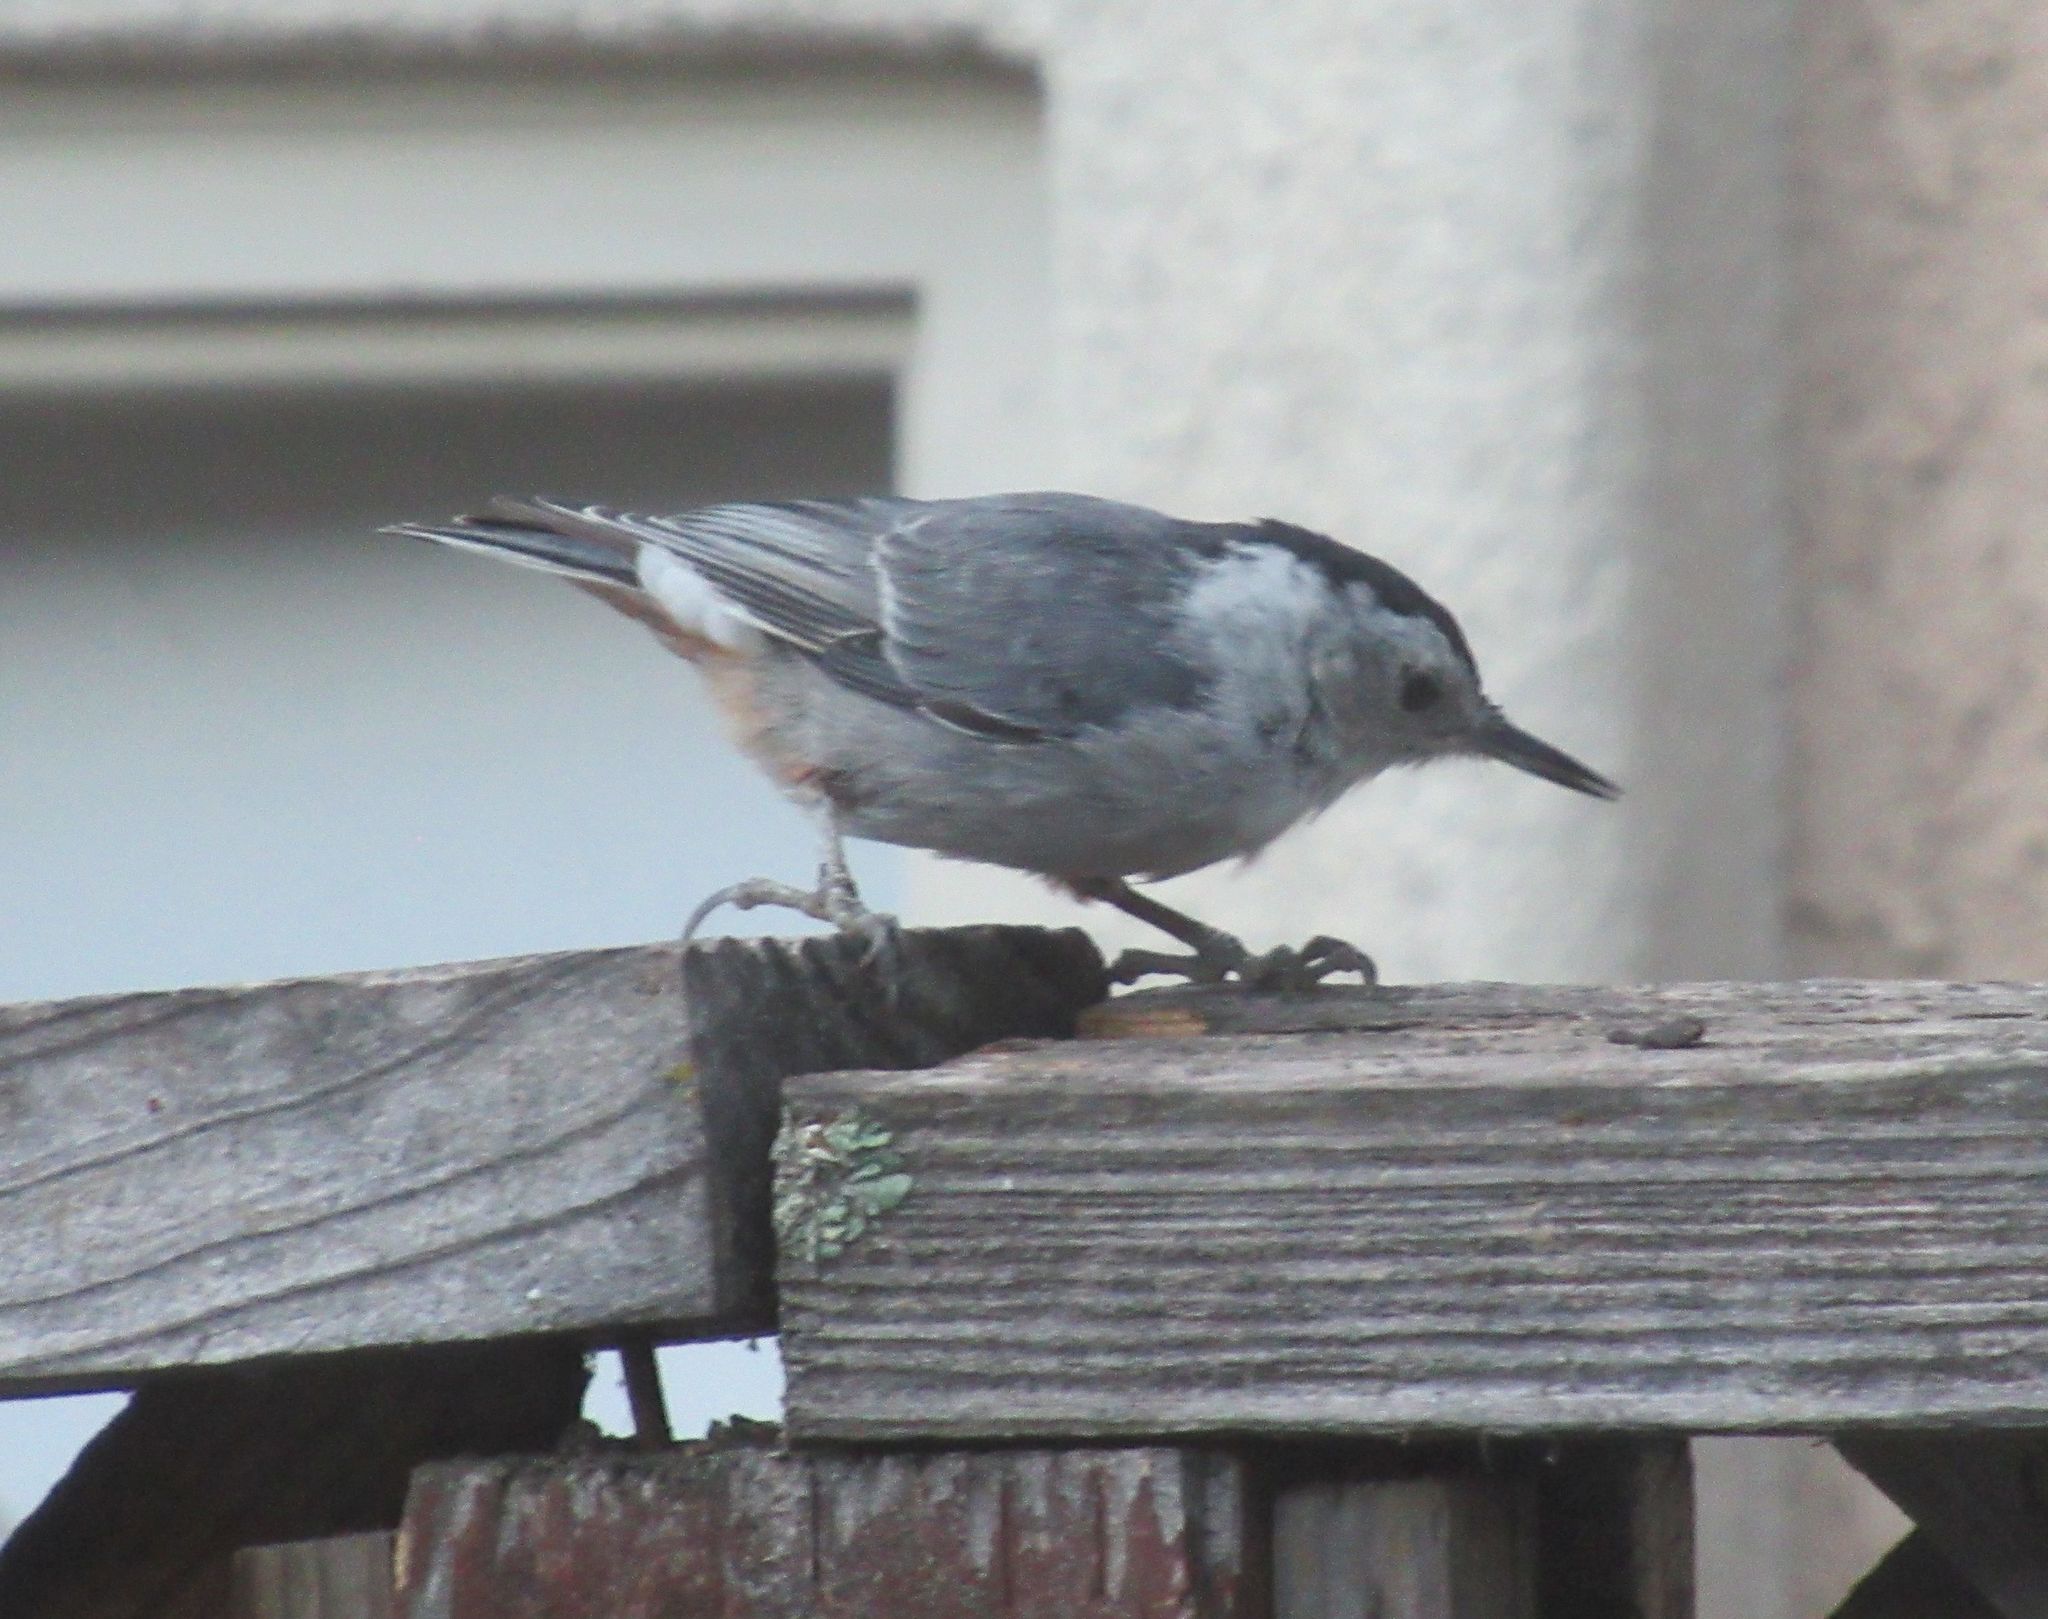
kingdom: Animalia
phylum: Chordata
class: Aves
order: Passeriformes
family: Sittidae
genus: Sitta
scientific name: Sitta carolinensis
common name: White-breasted nuthatch
